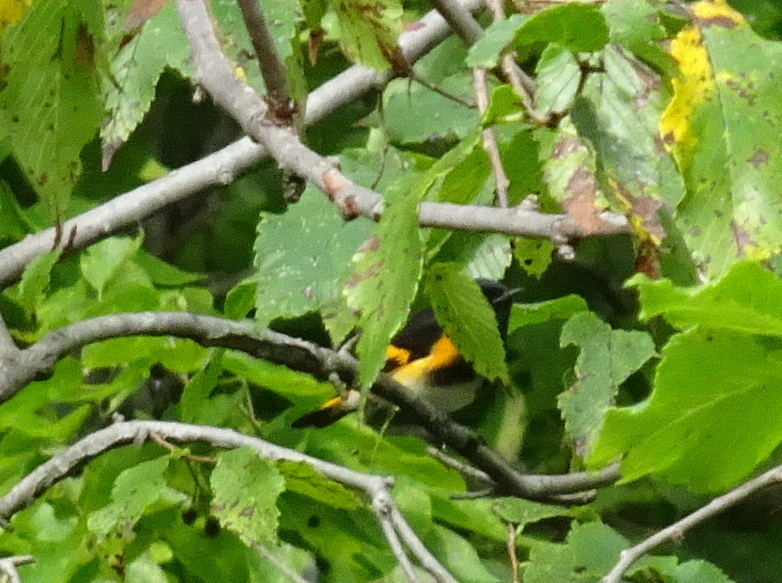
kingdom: Animalia
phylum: Chordata
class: Aves
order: Passeriformes
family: Parulidae
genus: Setophaga
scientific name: Setophaga ruticilla
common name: American redstart
